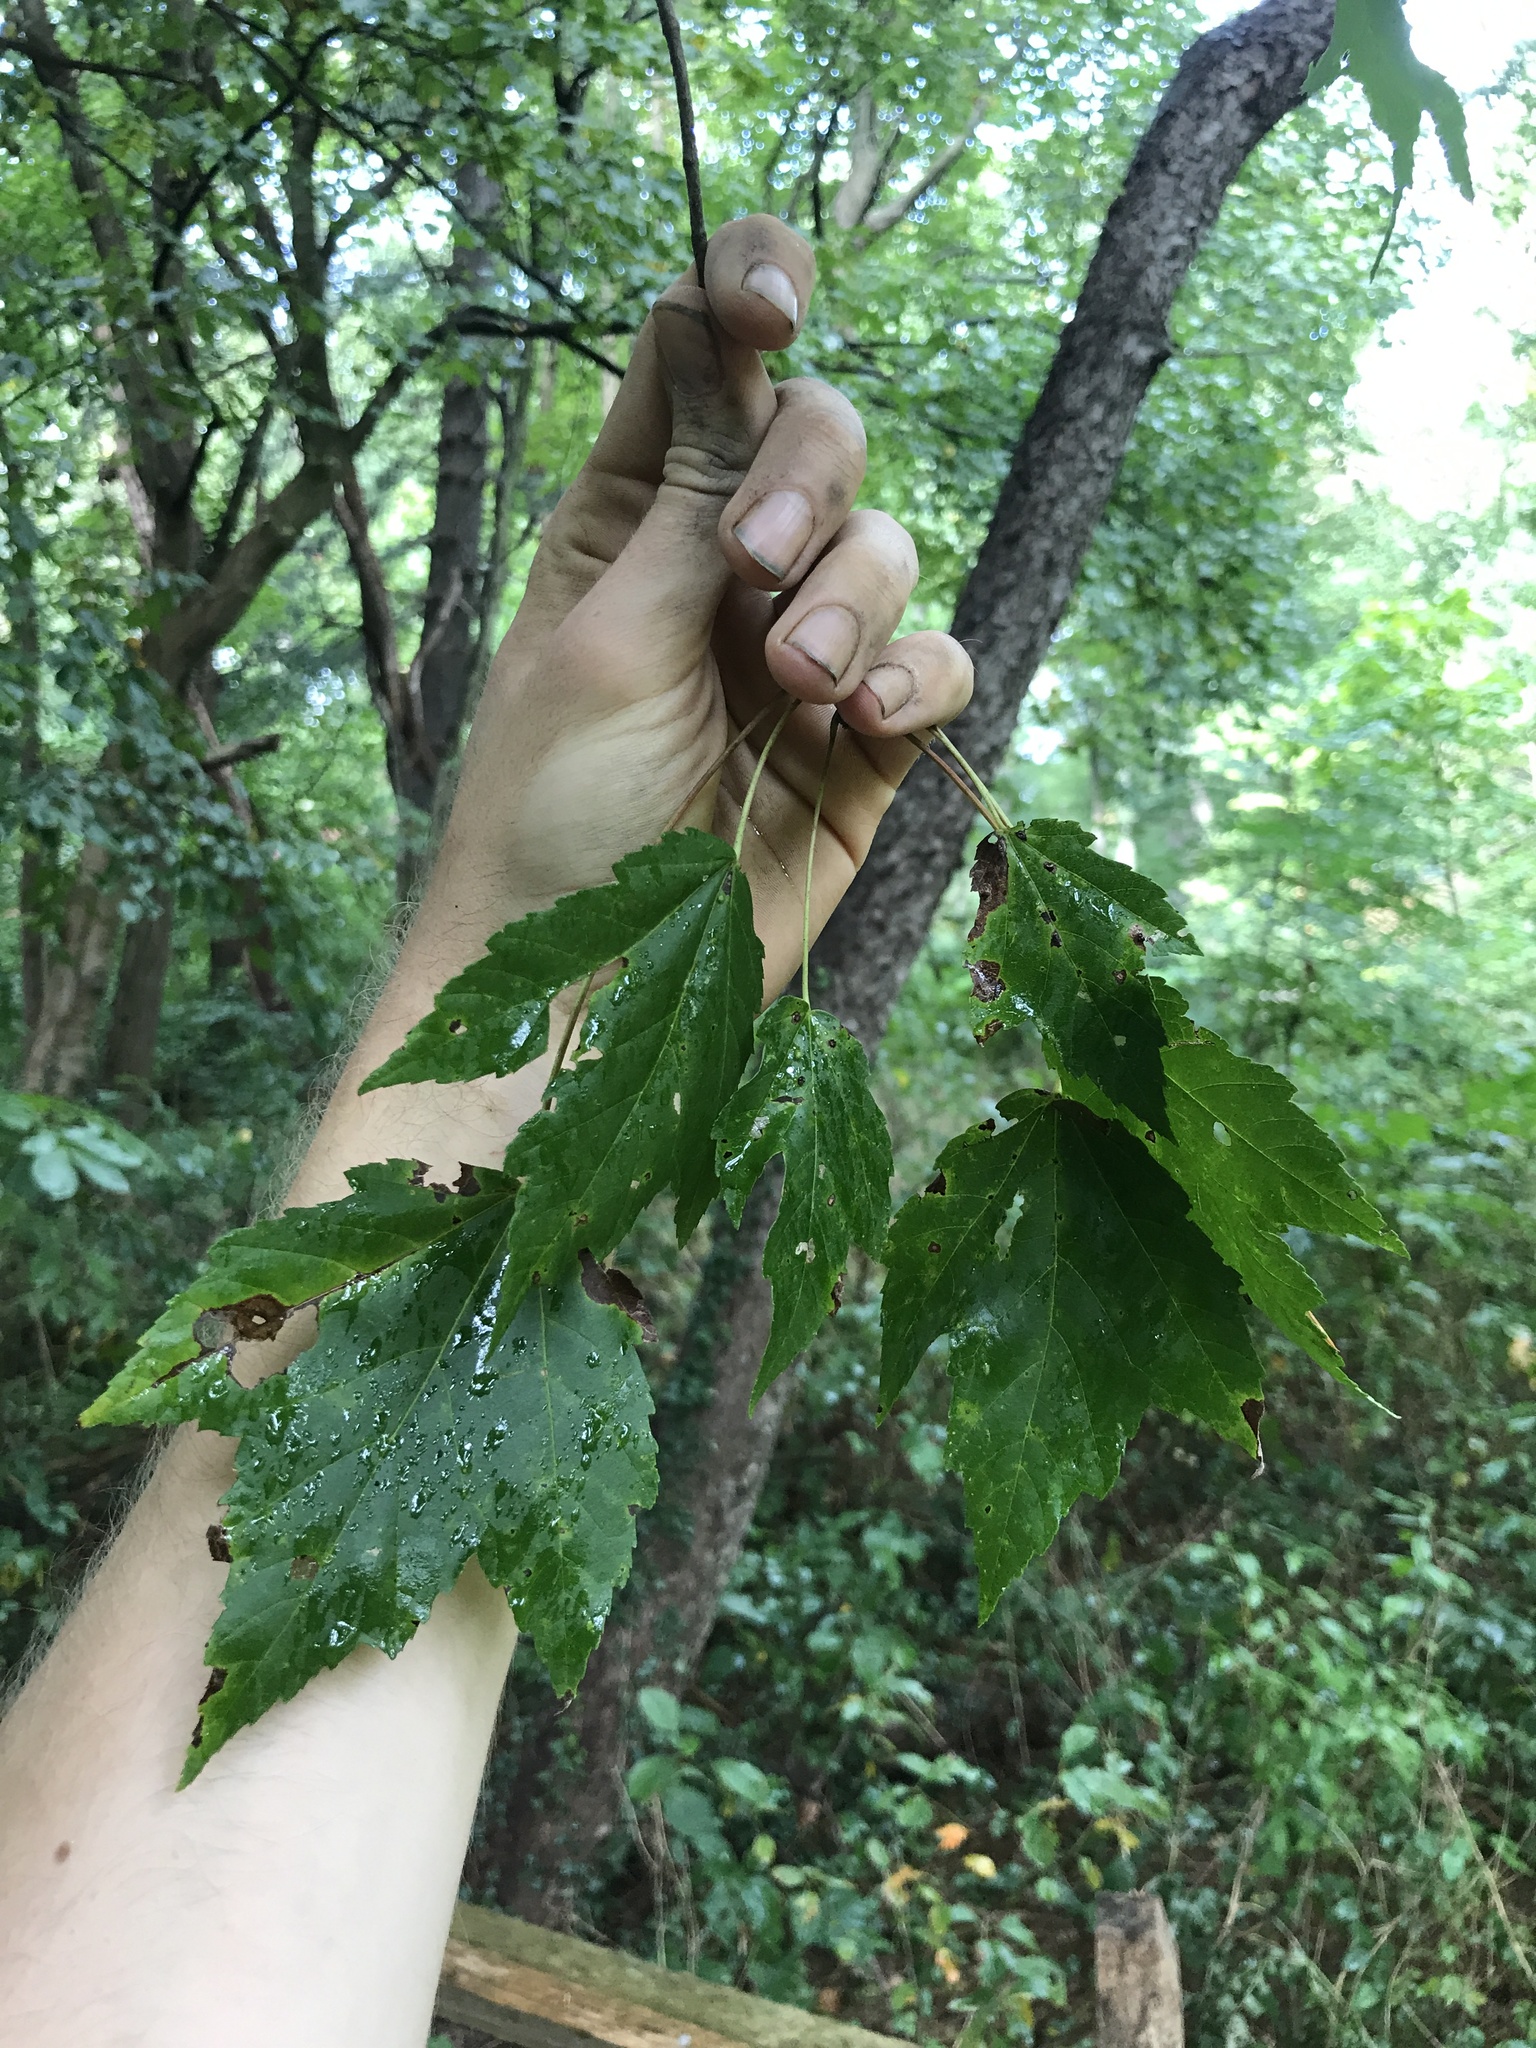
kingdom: Plantae
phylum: Tracheophyta
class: Magnoliopsida
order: Sapindales
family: Sapindaceae
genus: Acer
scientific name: Acer rubrum
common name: Red maple
